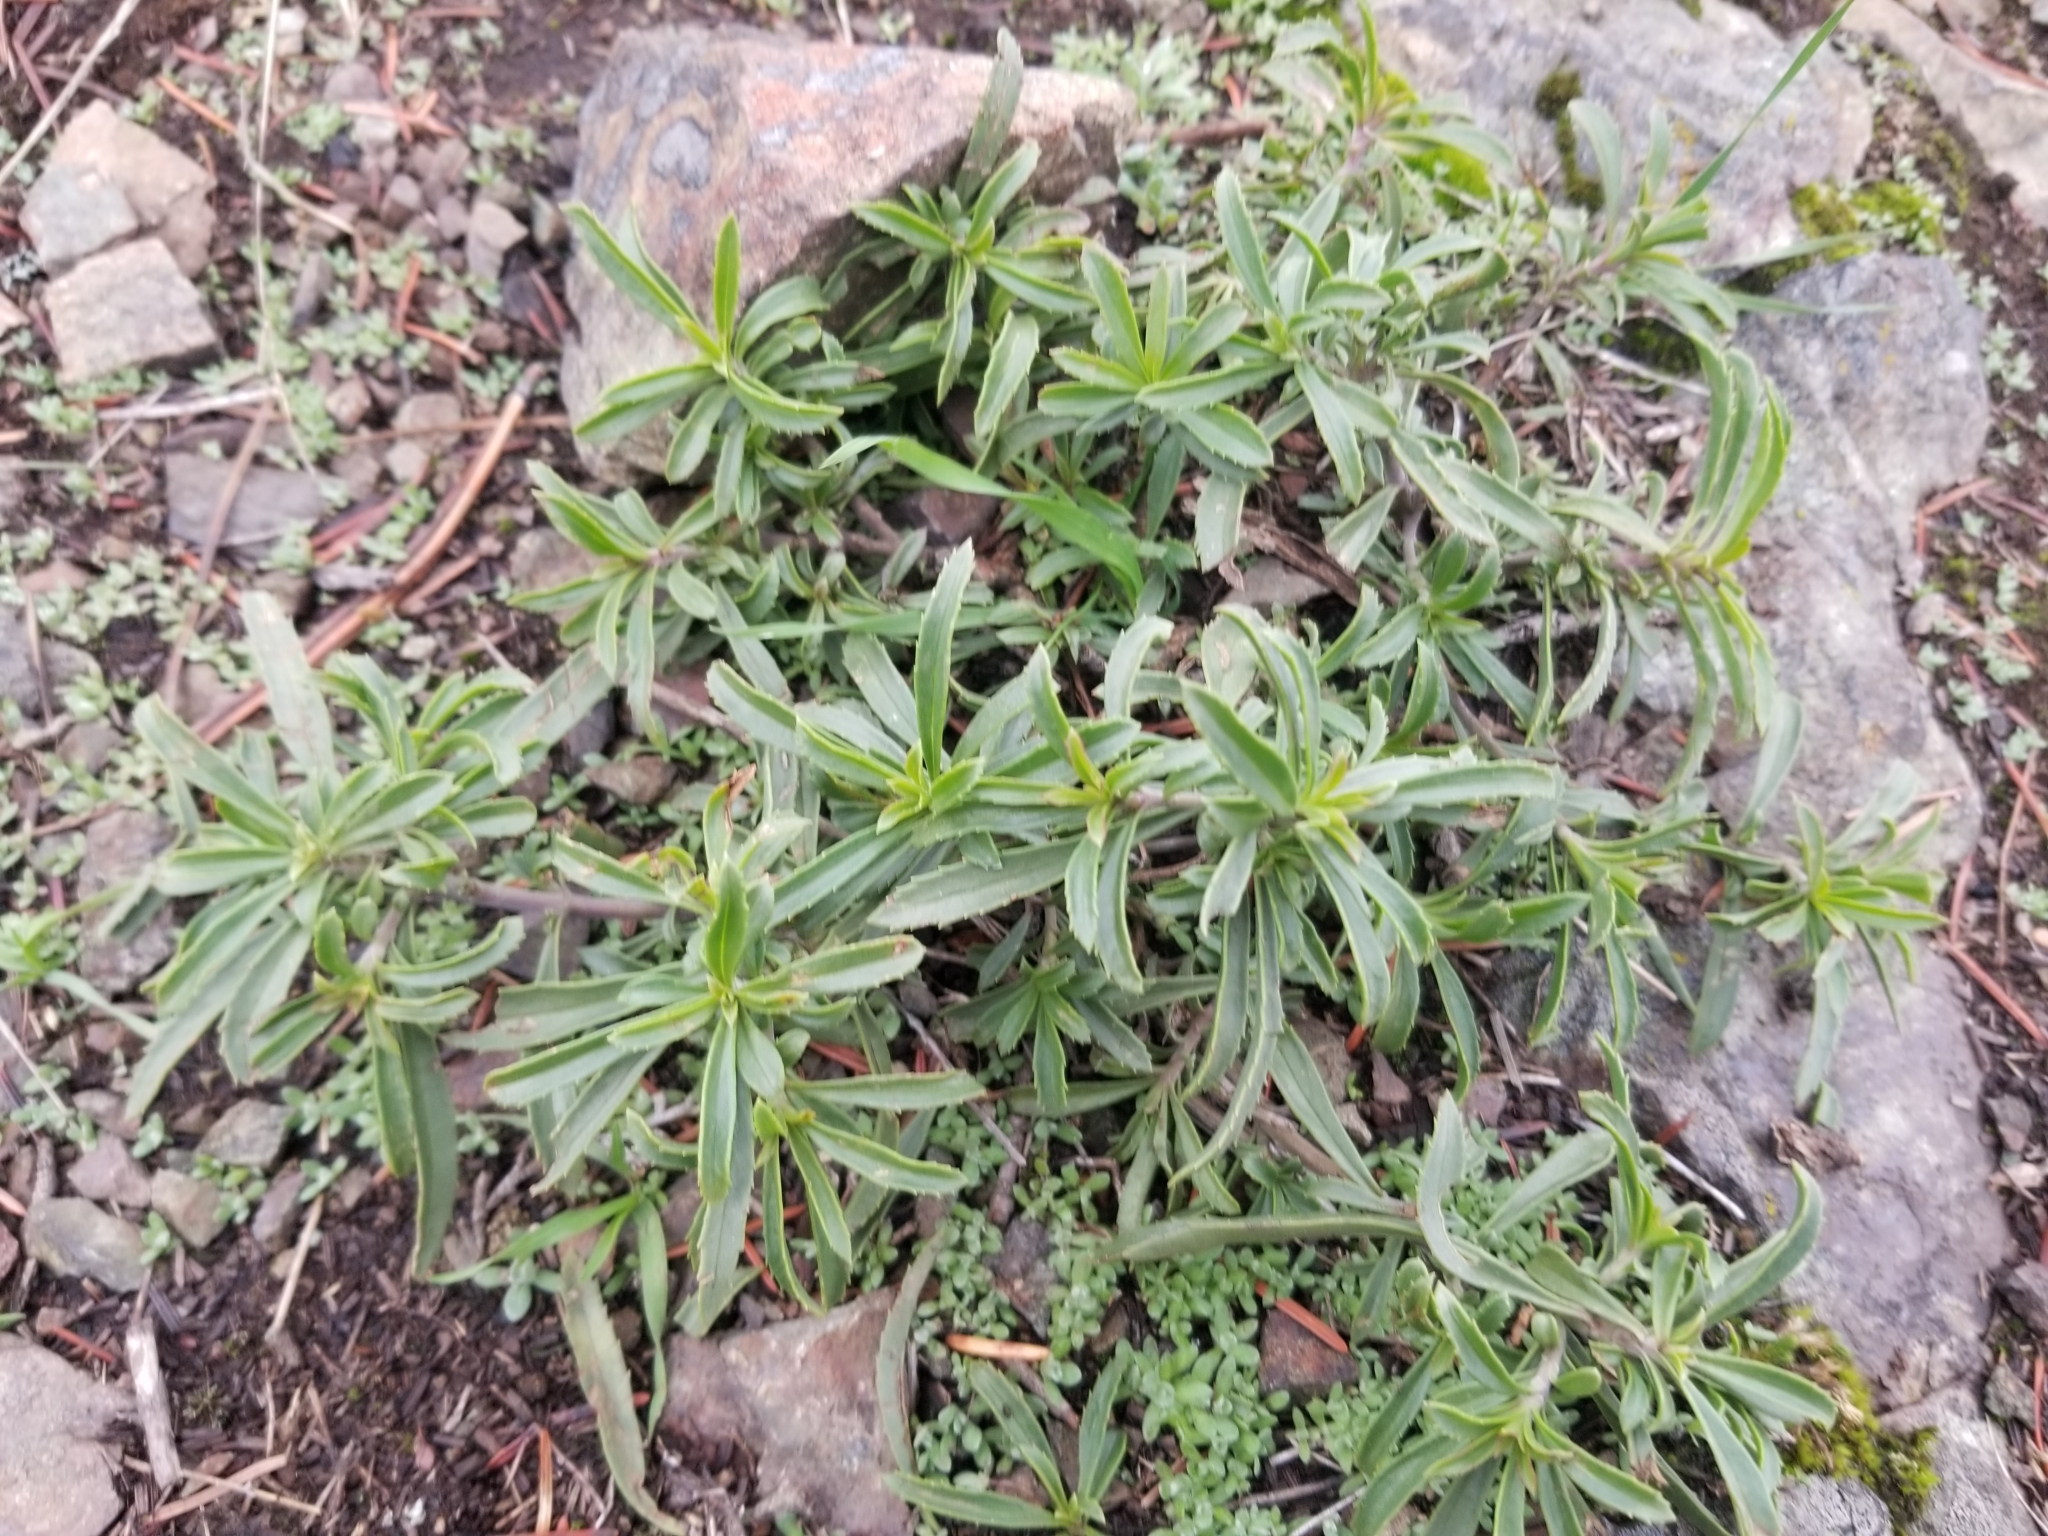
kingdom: Plantae
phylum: Tracheophyta
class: Magnoliopsida
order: Lamiales
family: Plantaginaceae
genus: Penstemon
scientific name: Penstemon fruticosus
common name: Bush penstemon
